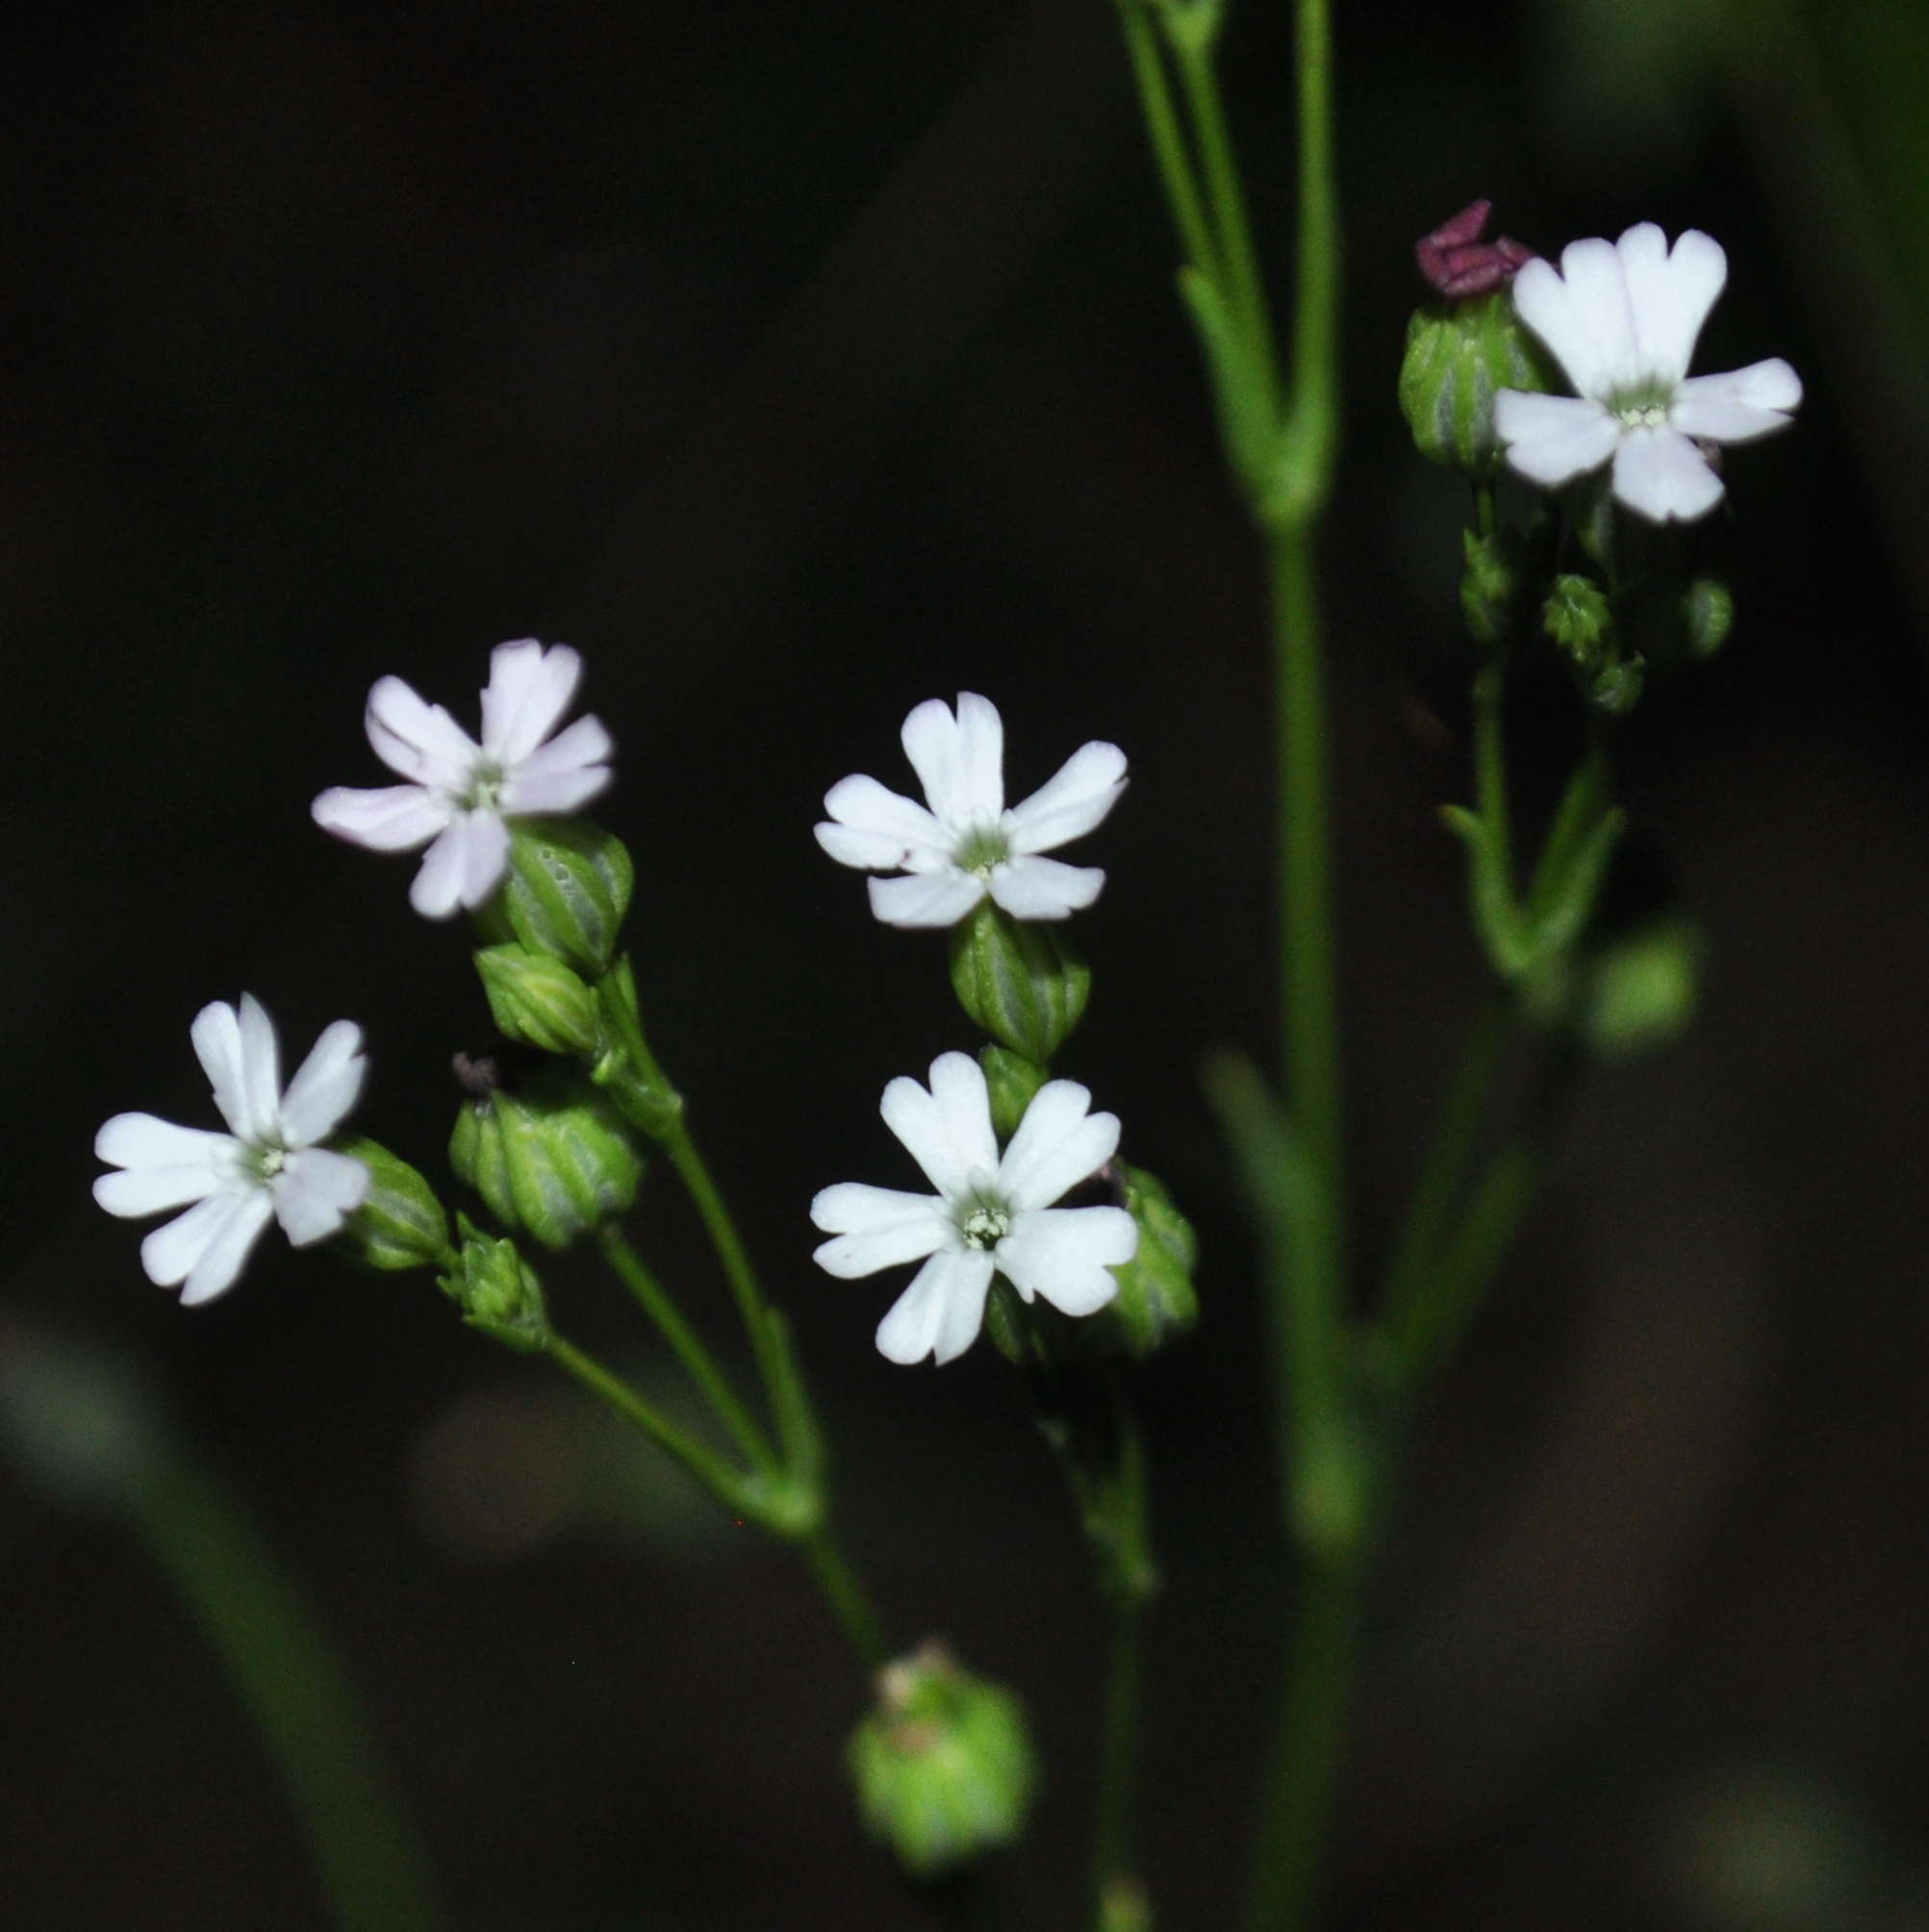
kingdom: Plantae
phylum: Tracheophyta
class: Magnoliopsida
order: Caryophyllales
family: Caryophyllaceae
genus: Silene
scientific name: Silene antirrhina
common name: Sleepy catchfly
